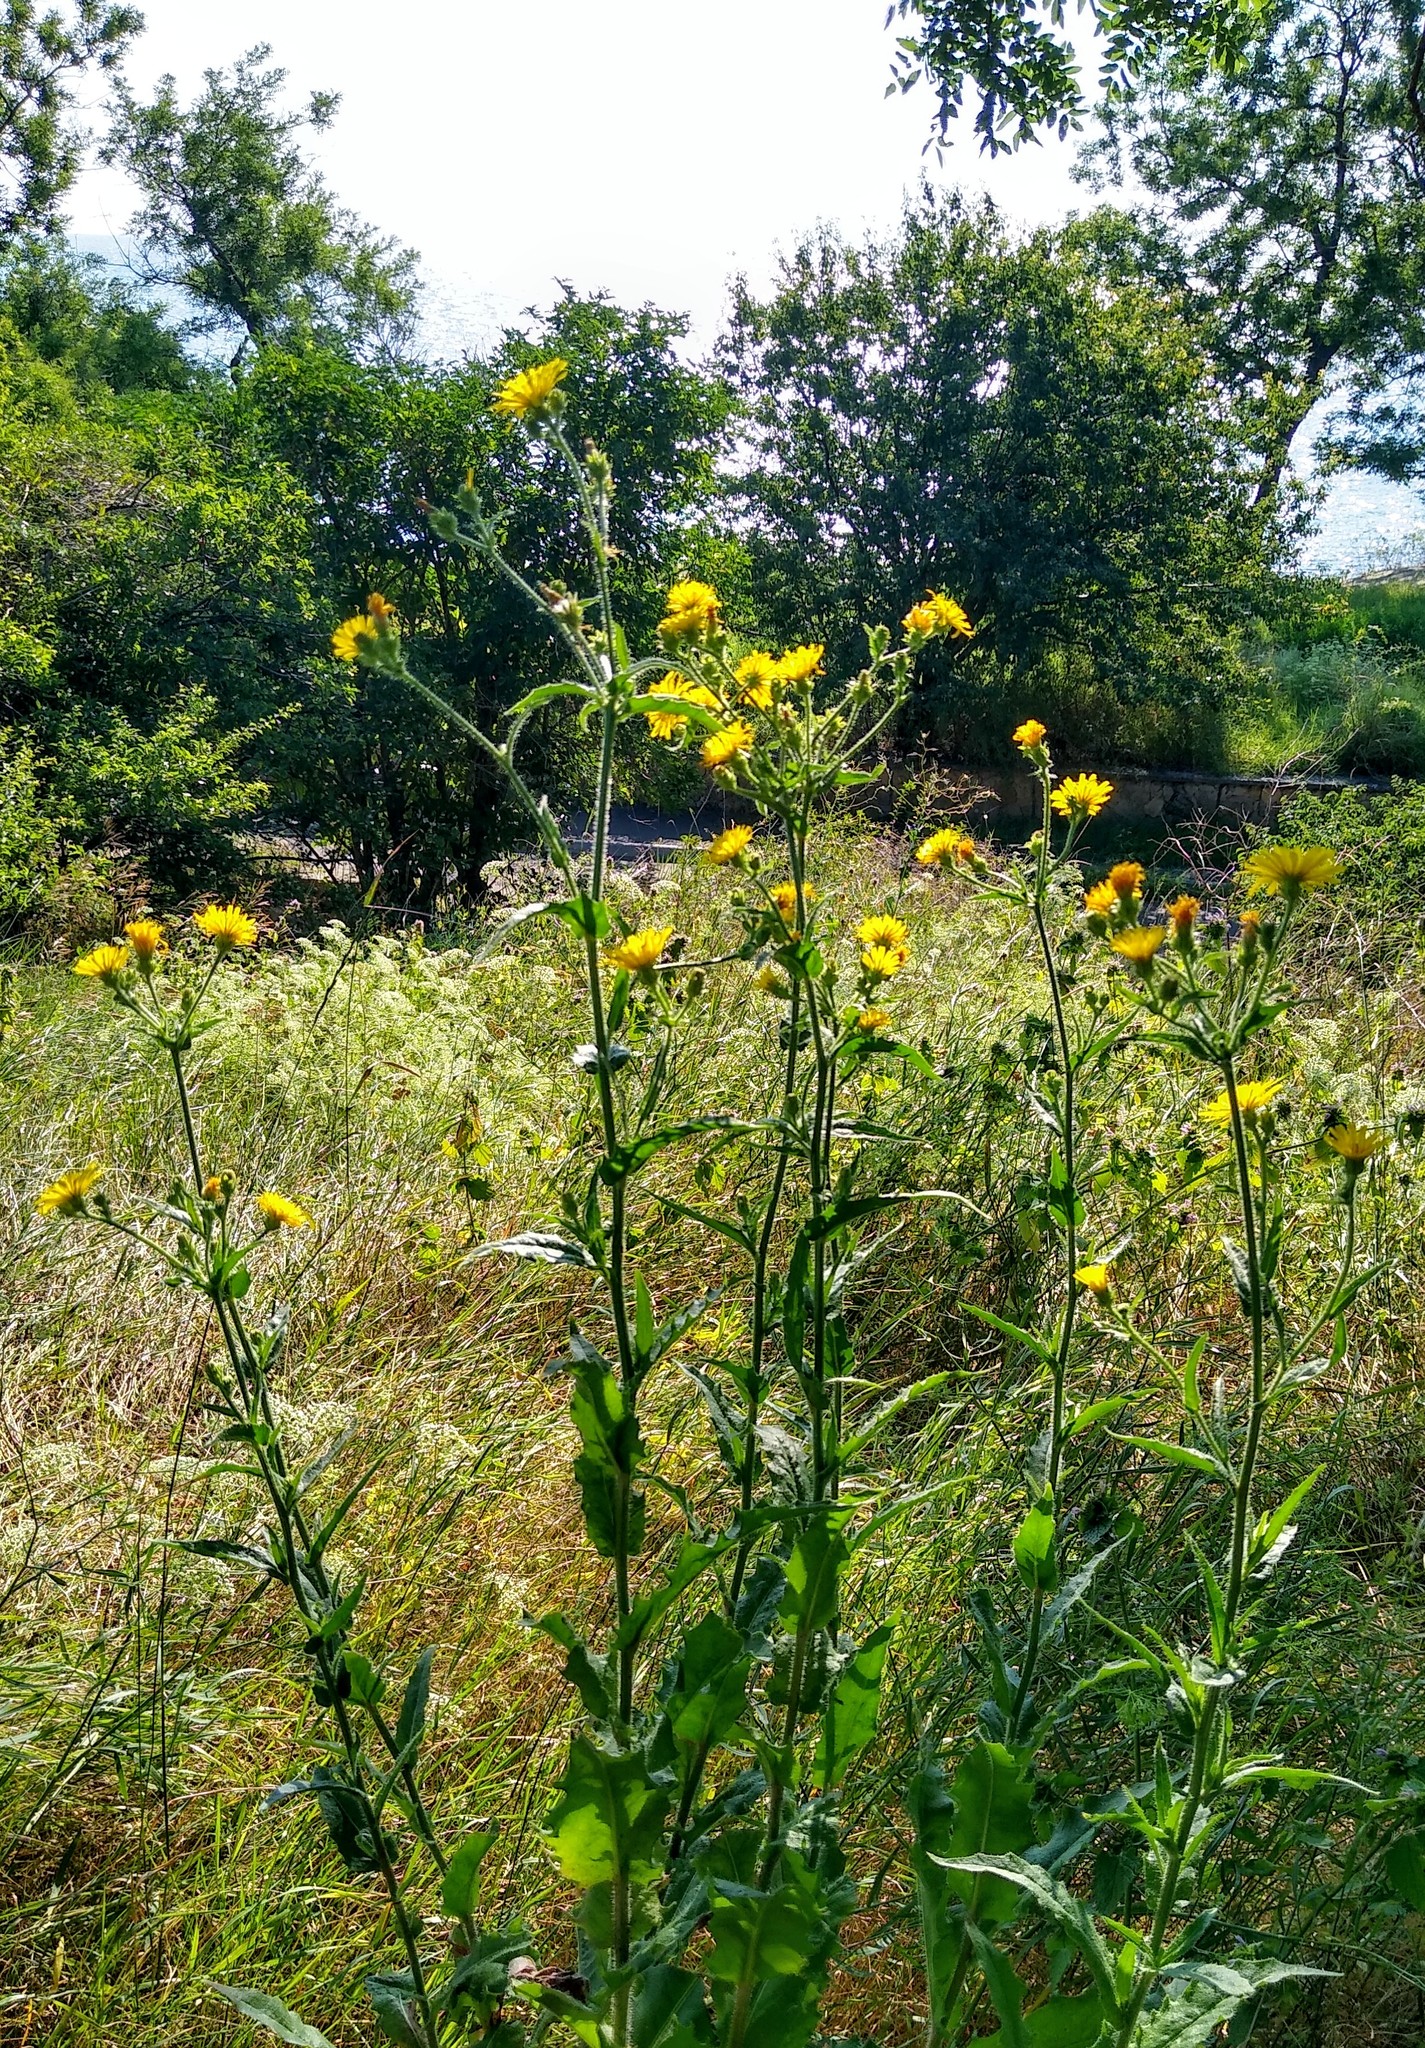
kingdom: Plantae
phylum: Tracheophyta
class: Magnoliopsida
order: Asterales
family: Asteraceae
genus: Picris
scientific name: Picris hieracioides
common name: Hawkweed oxtongue
